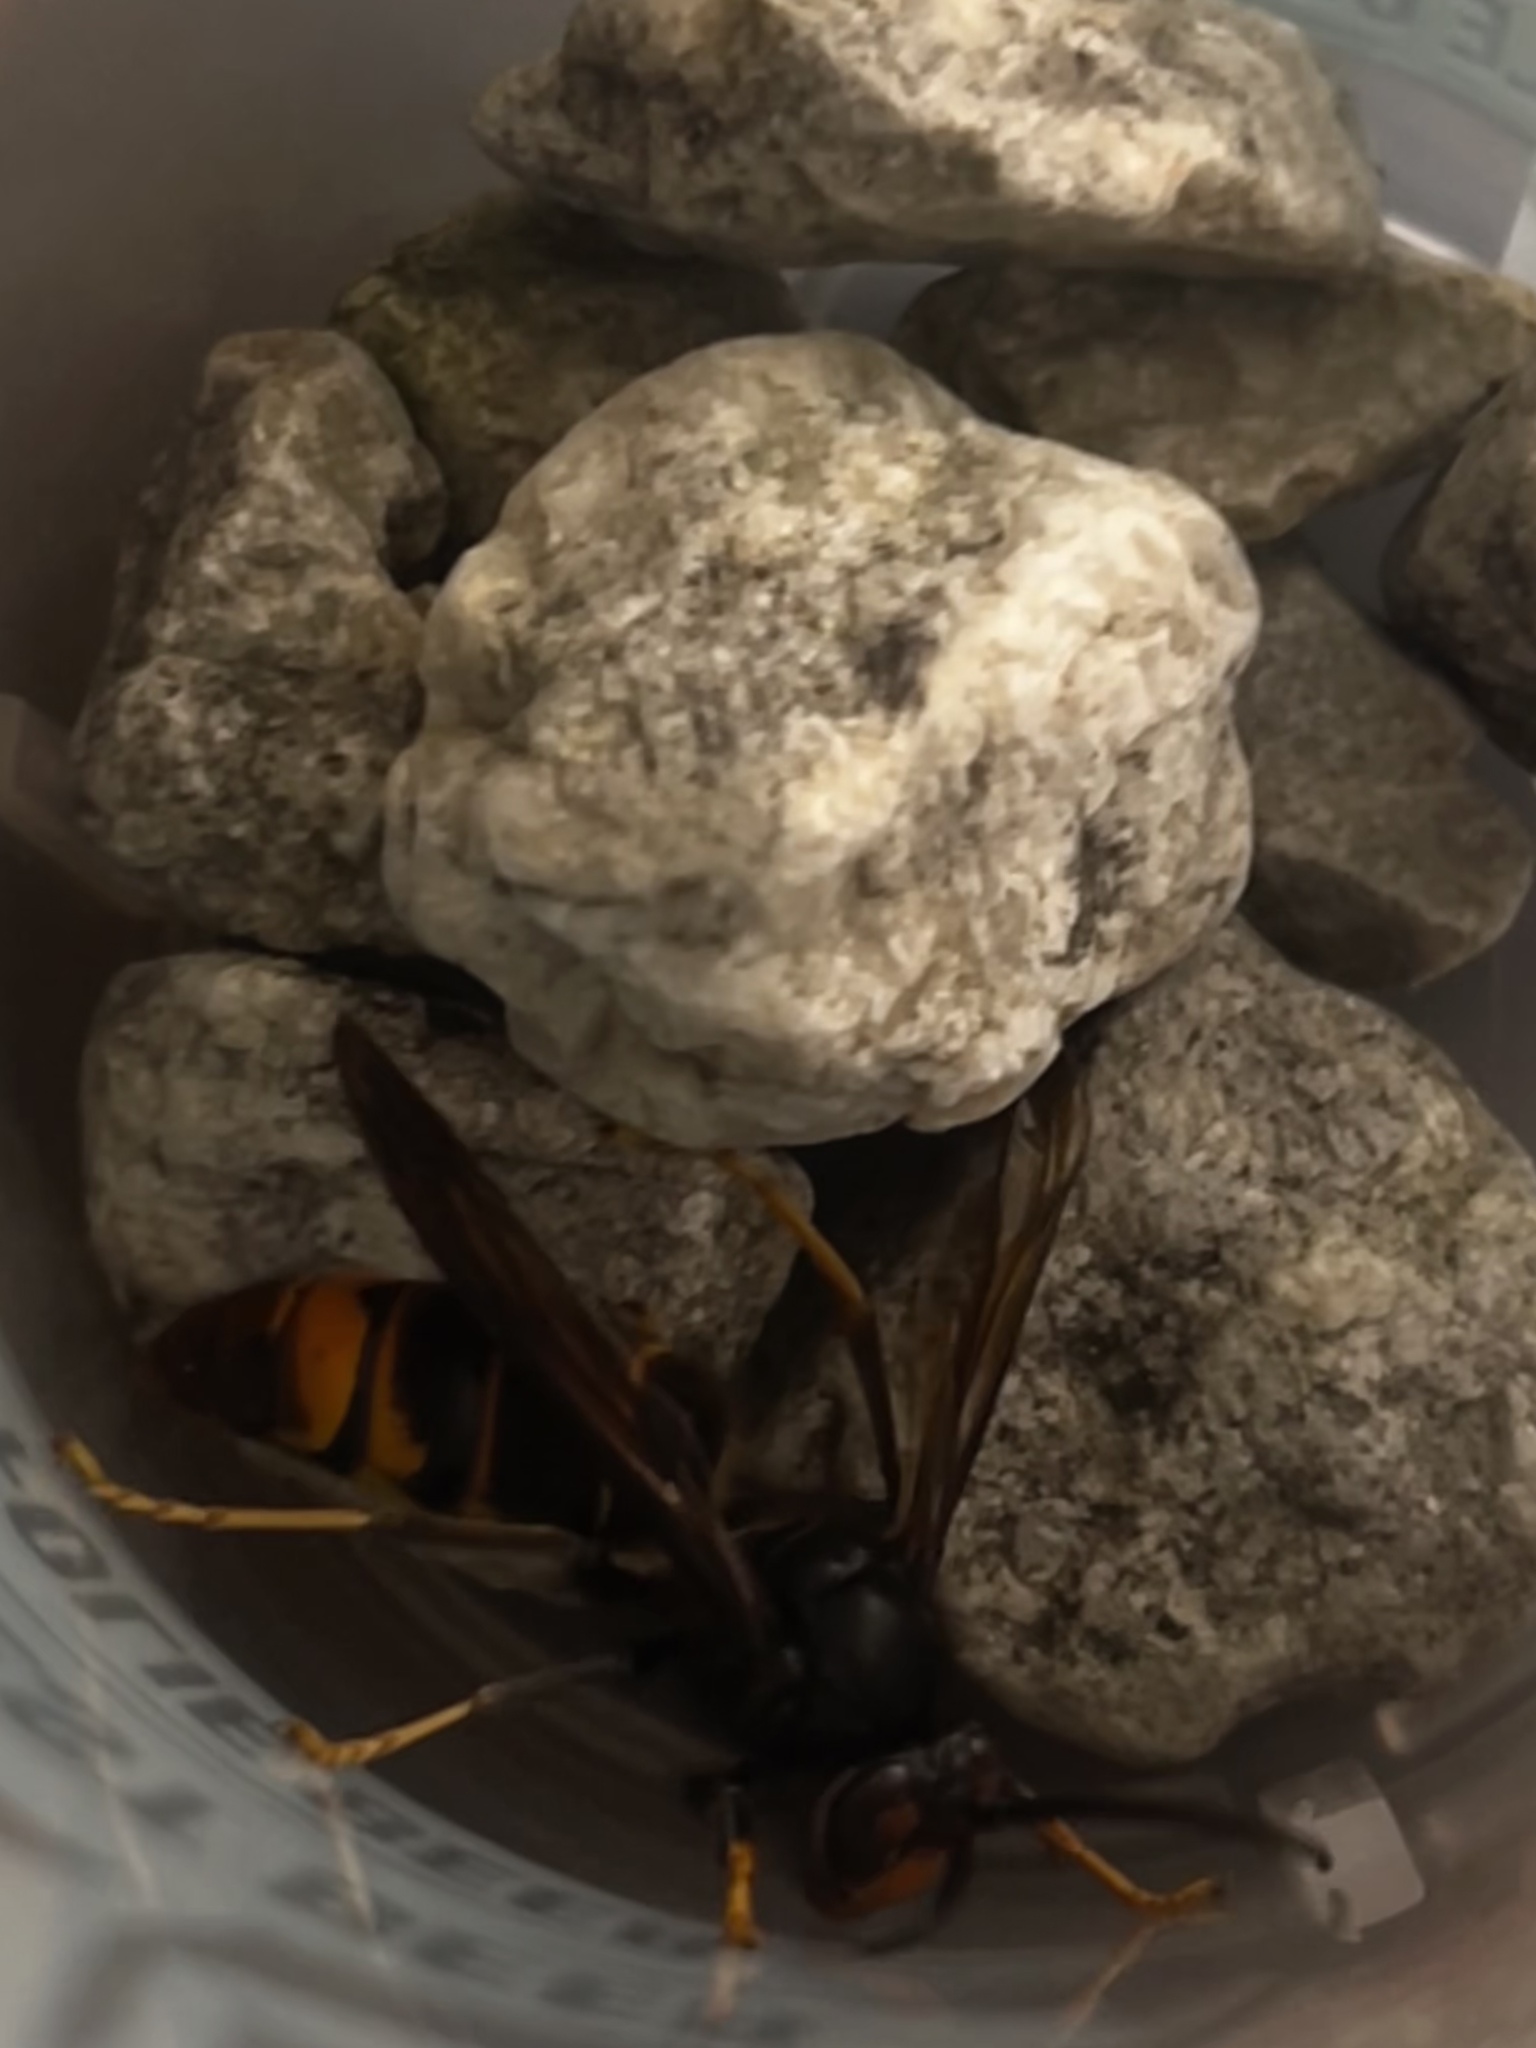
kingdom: Animalia
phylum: Arthropoda
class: Insecta
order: Hymenoptera
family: Vespidae
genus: Vespa
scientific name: Vespa velutina
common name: Asian hornet
